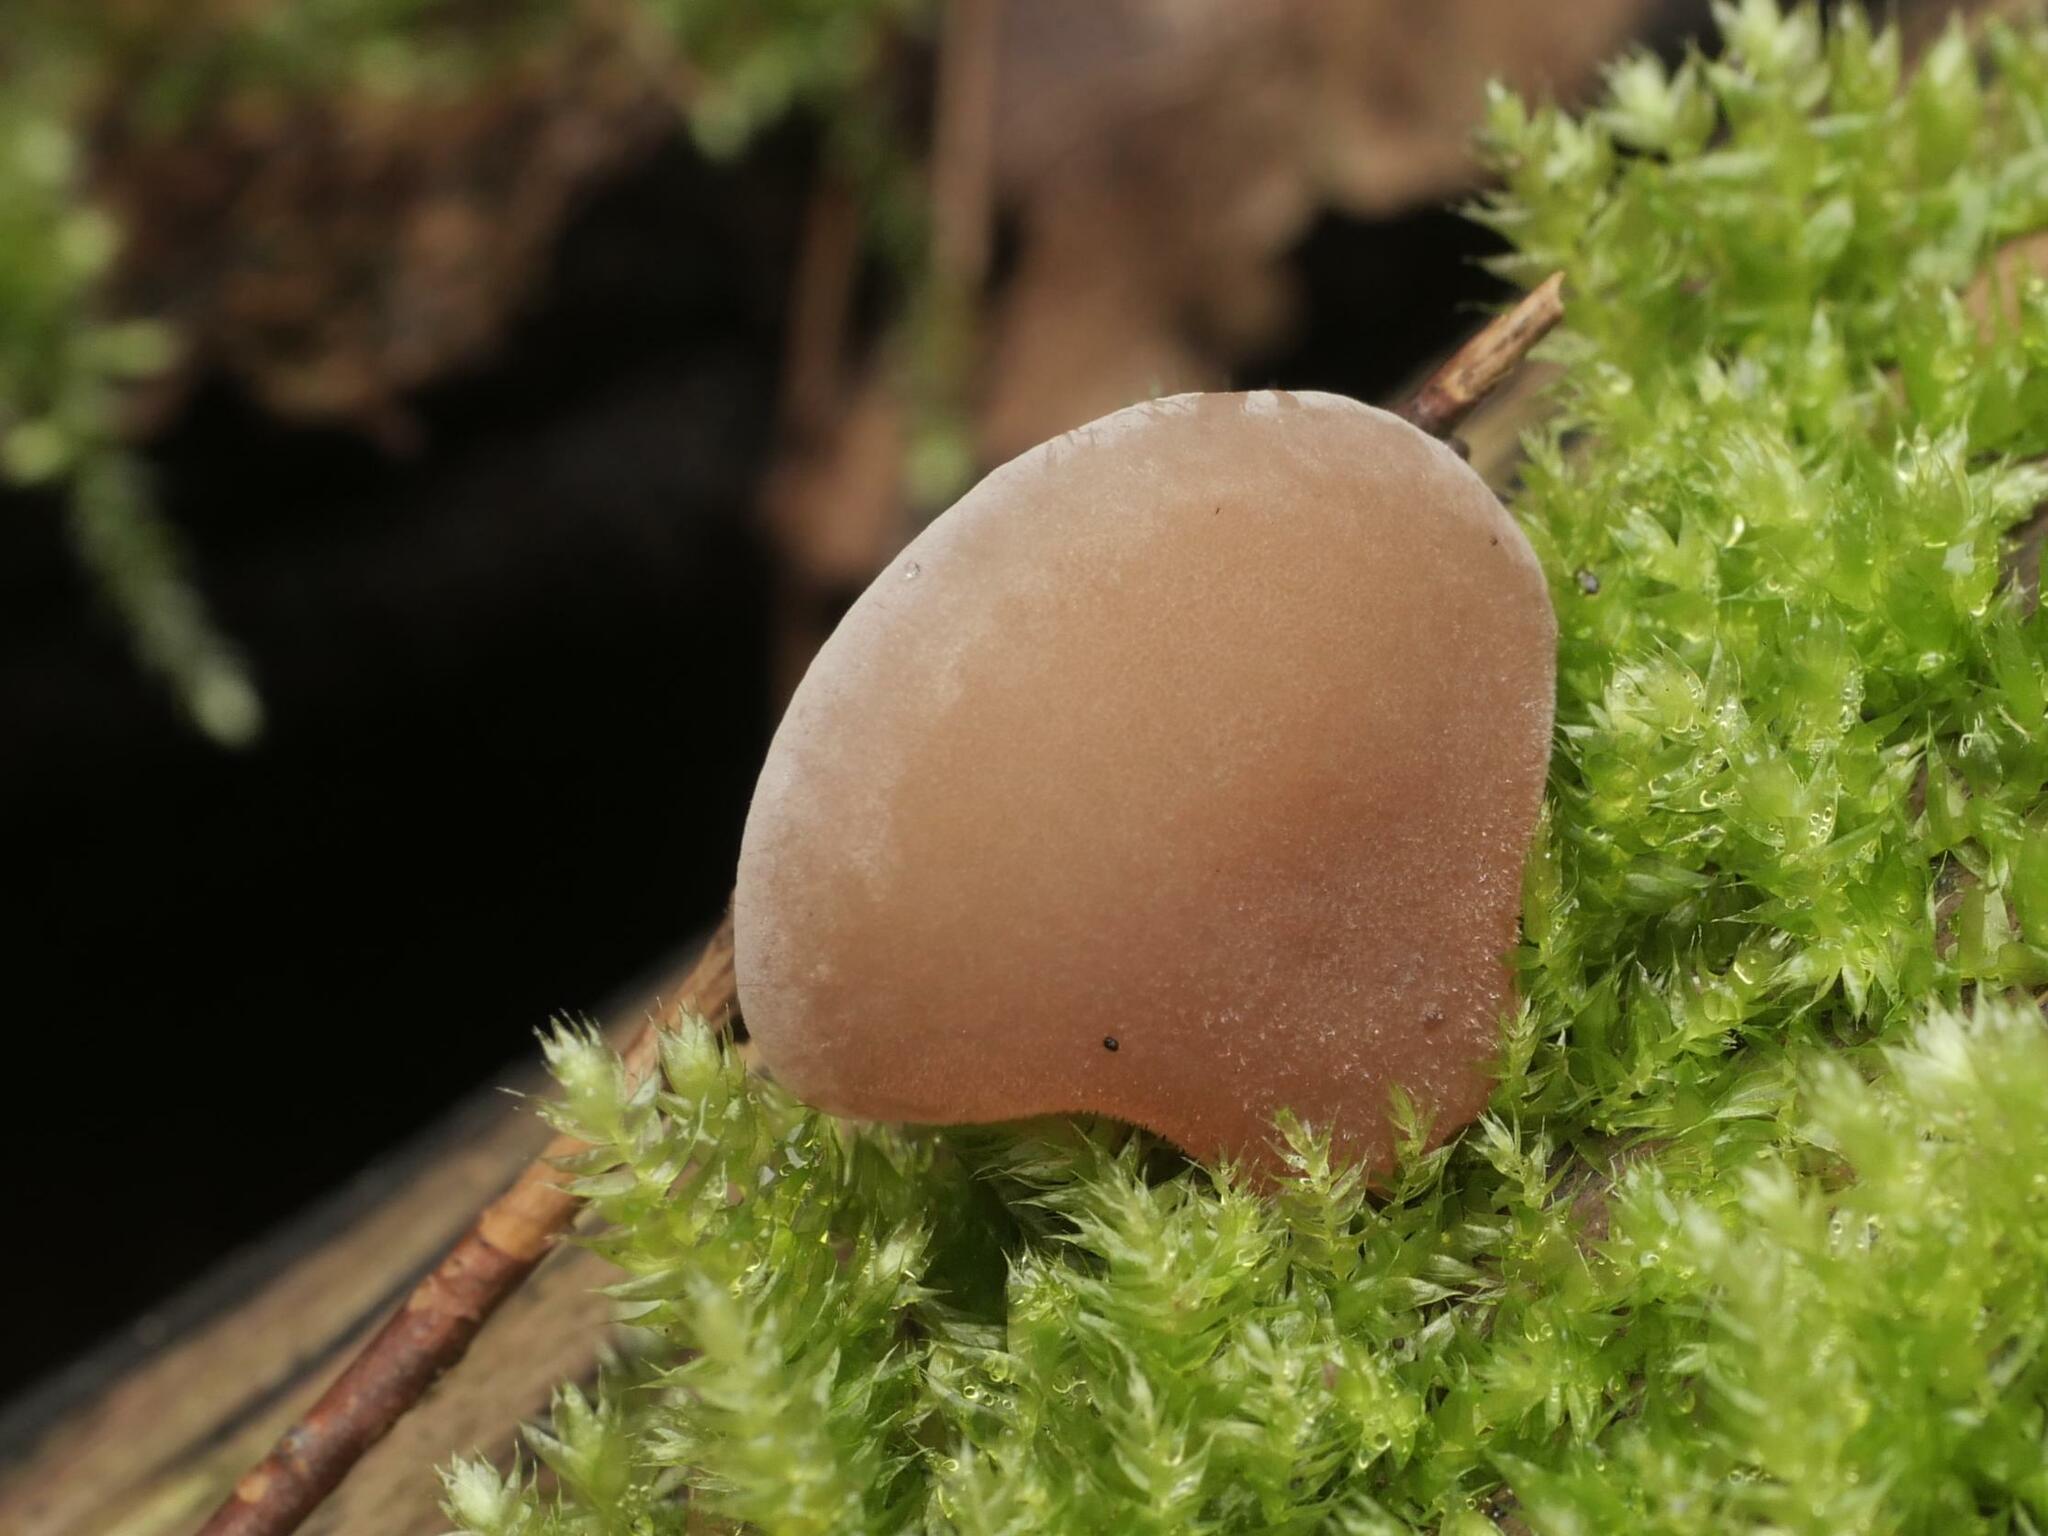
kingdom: Fungi
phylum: Basidiomycota
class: Agaricomycetes
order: Auriculariales
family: Auriculariaceae
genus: Auricularia
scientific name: Auricularia auricula-judae
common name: Jelly ear
